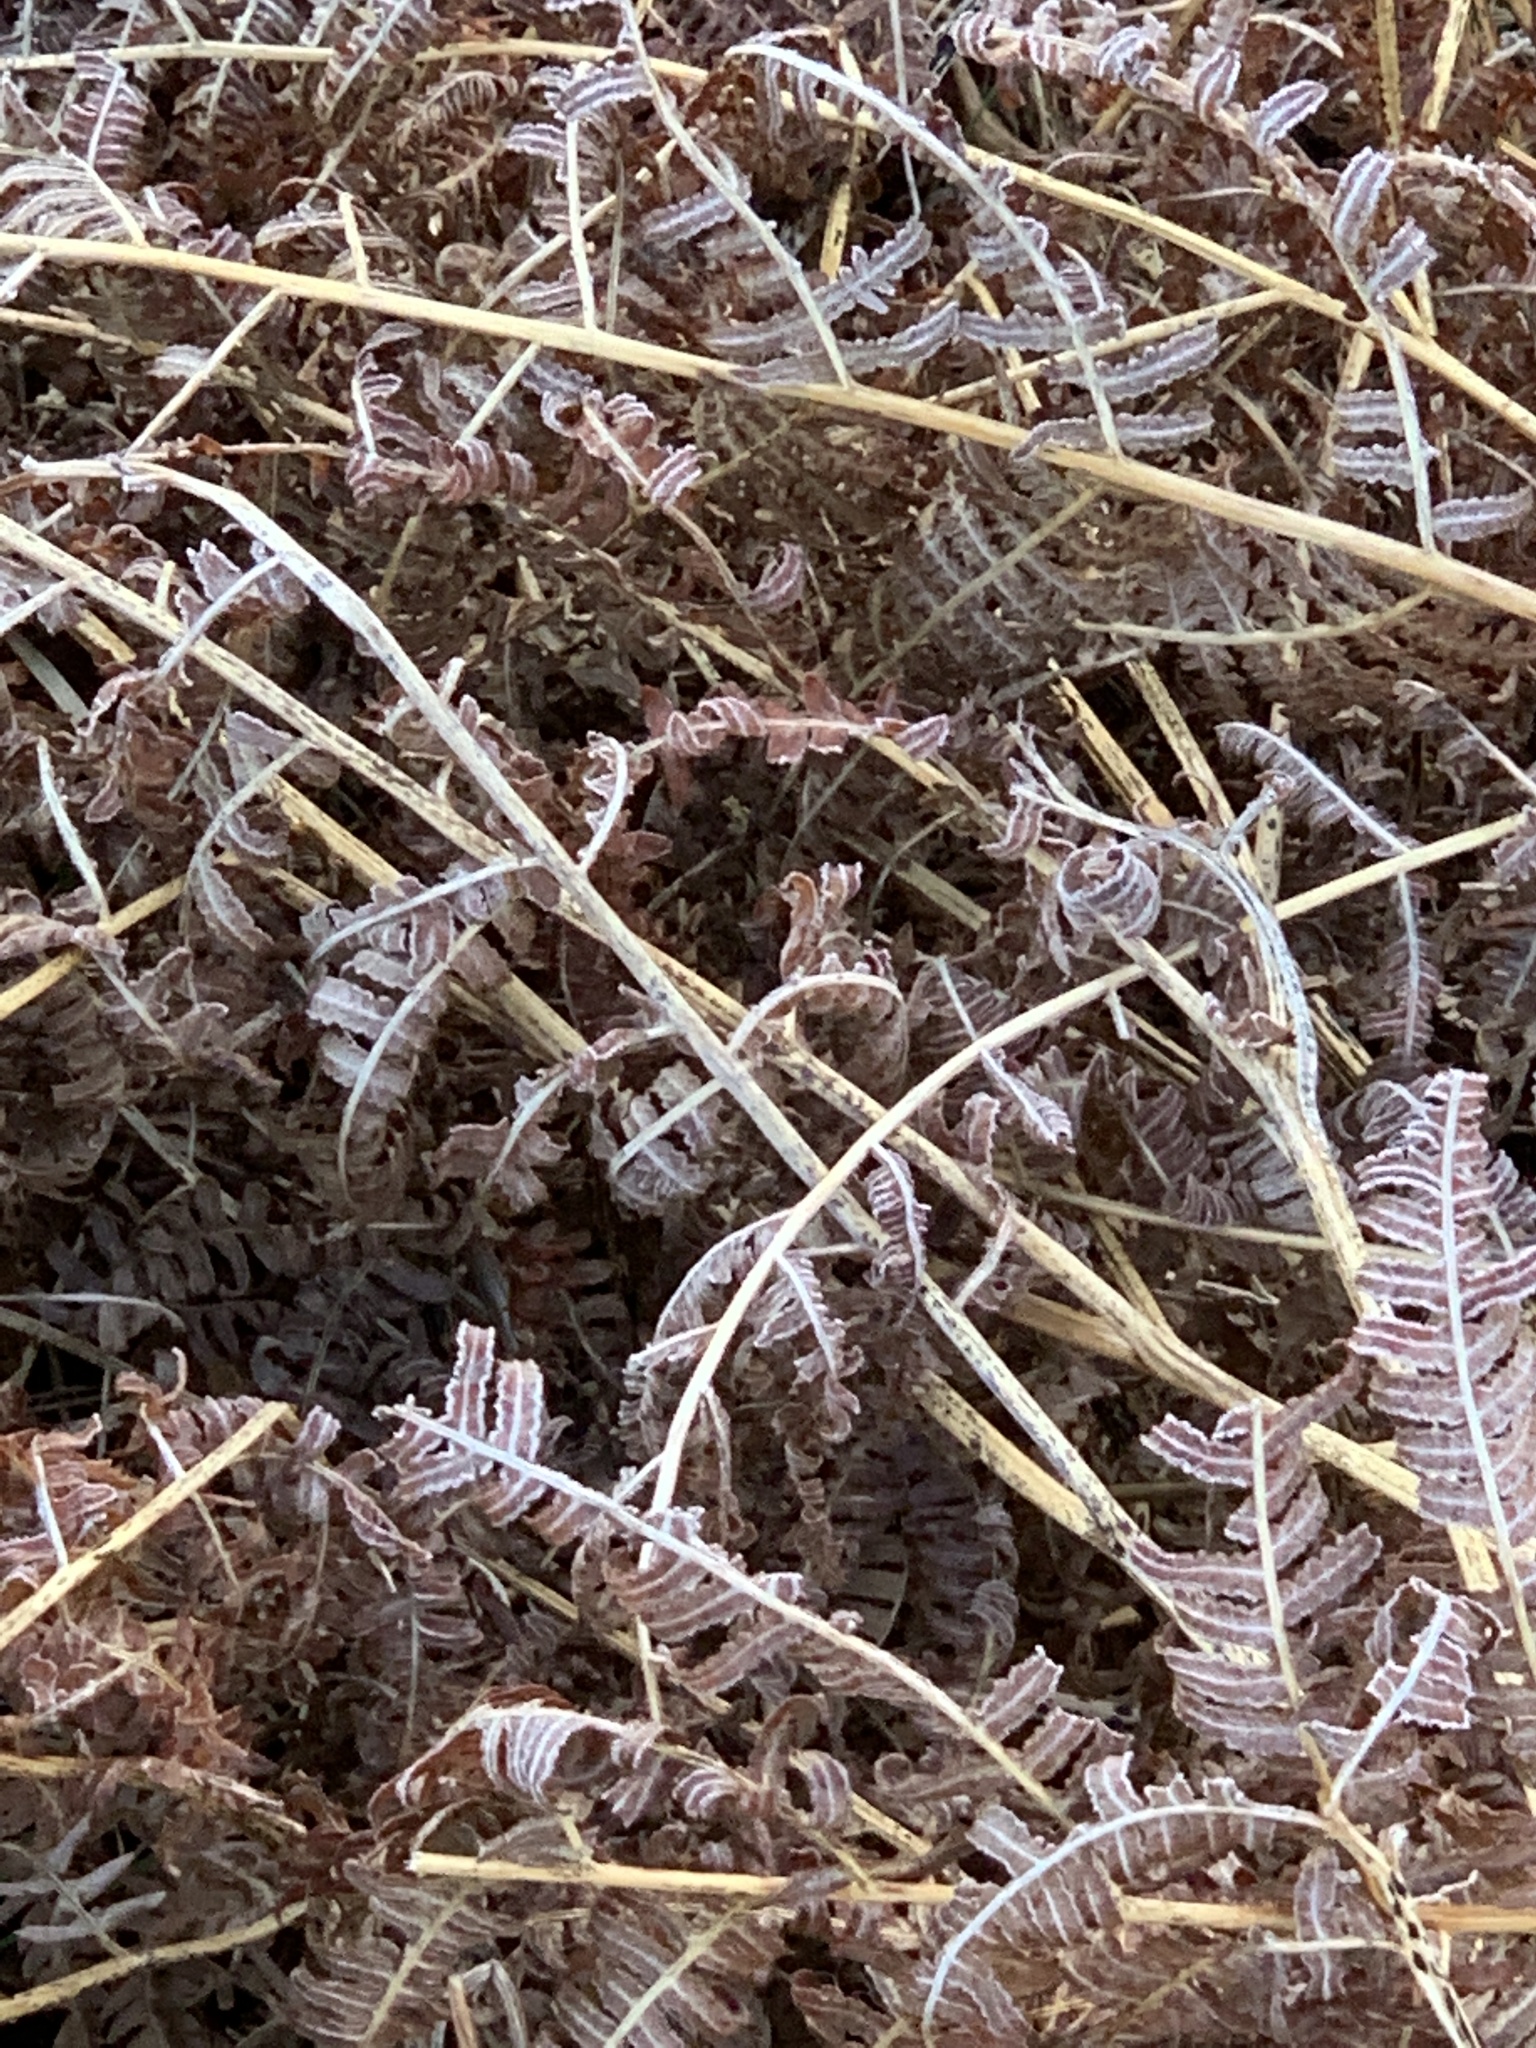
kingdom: Plantae
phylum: Tracheophyta
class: Polypodiopsida
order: Polypodiales
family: Dennstaedtiaceae
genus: Pteridium
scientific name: Pteridium aquilinum
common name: Bracken
